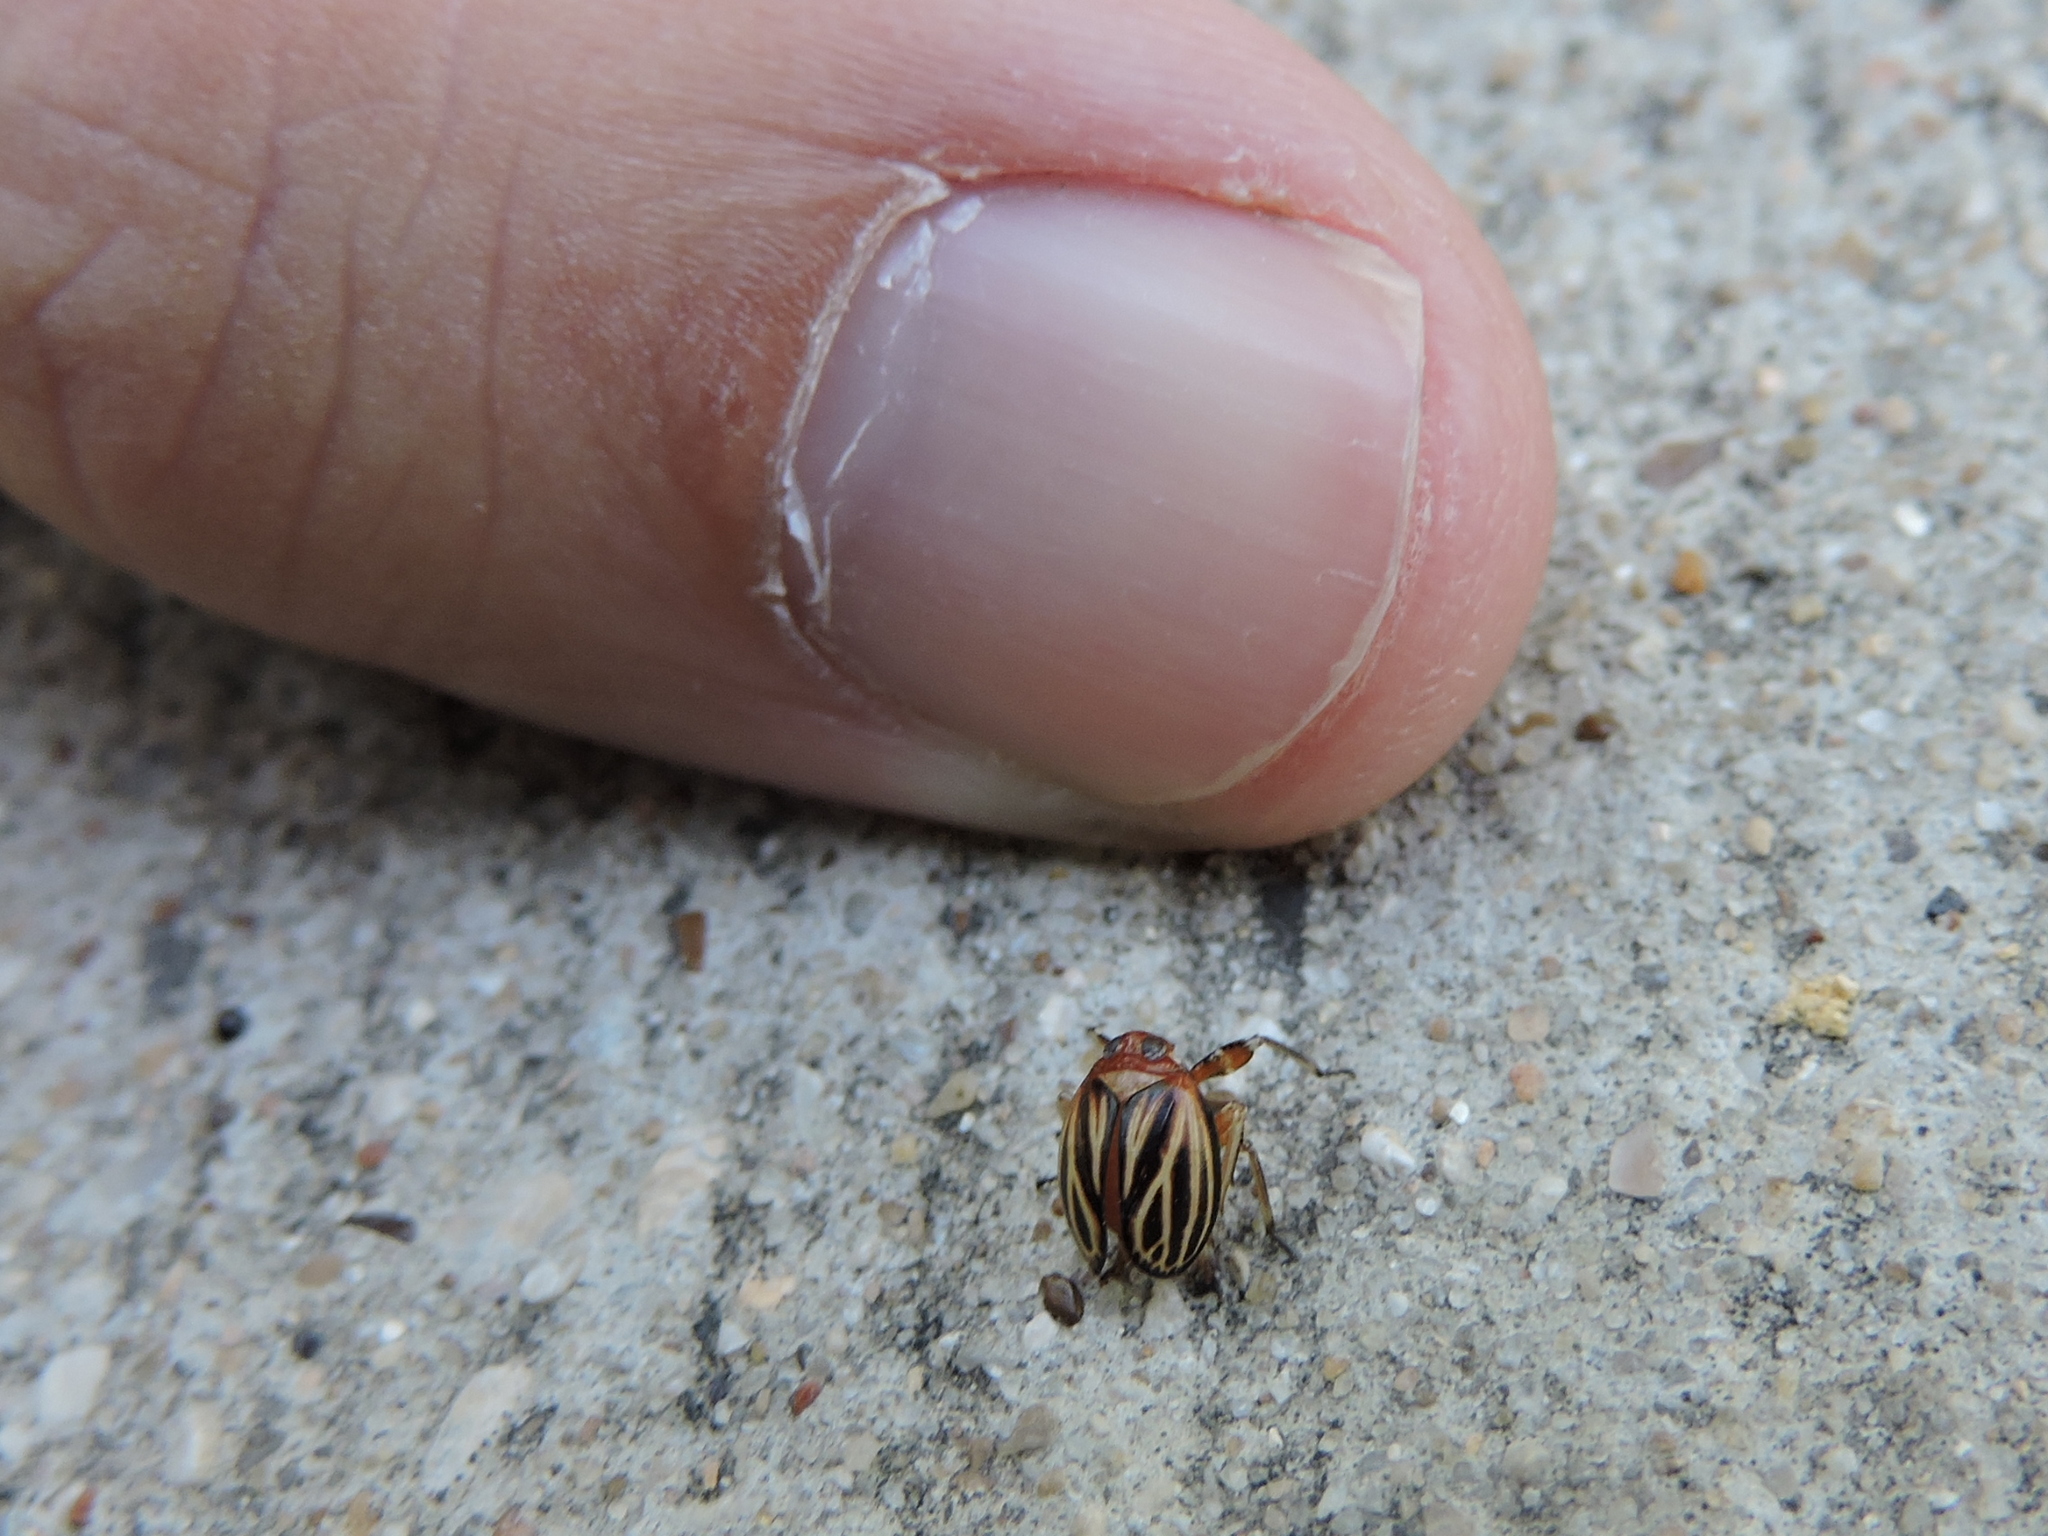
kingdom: Animalia
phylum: Arthropoda
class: Insecta
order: Hemiptera
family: Achilidae
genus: Isodaemon
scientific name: Isodaemon orontes
